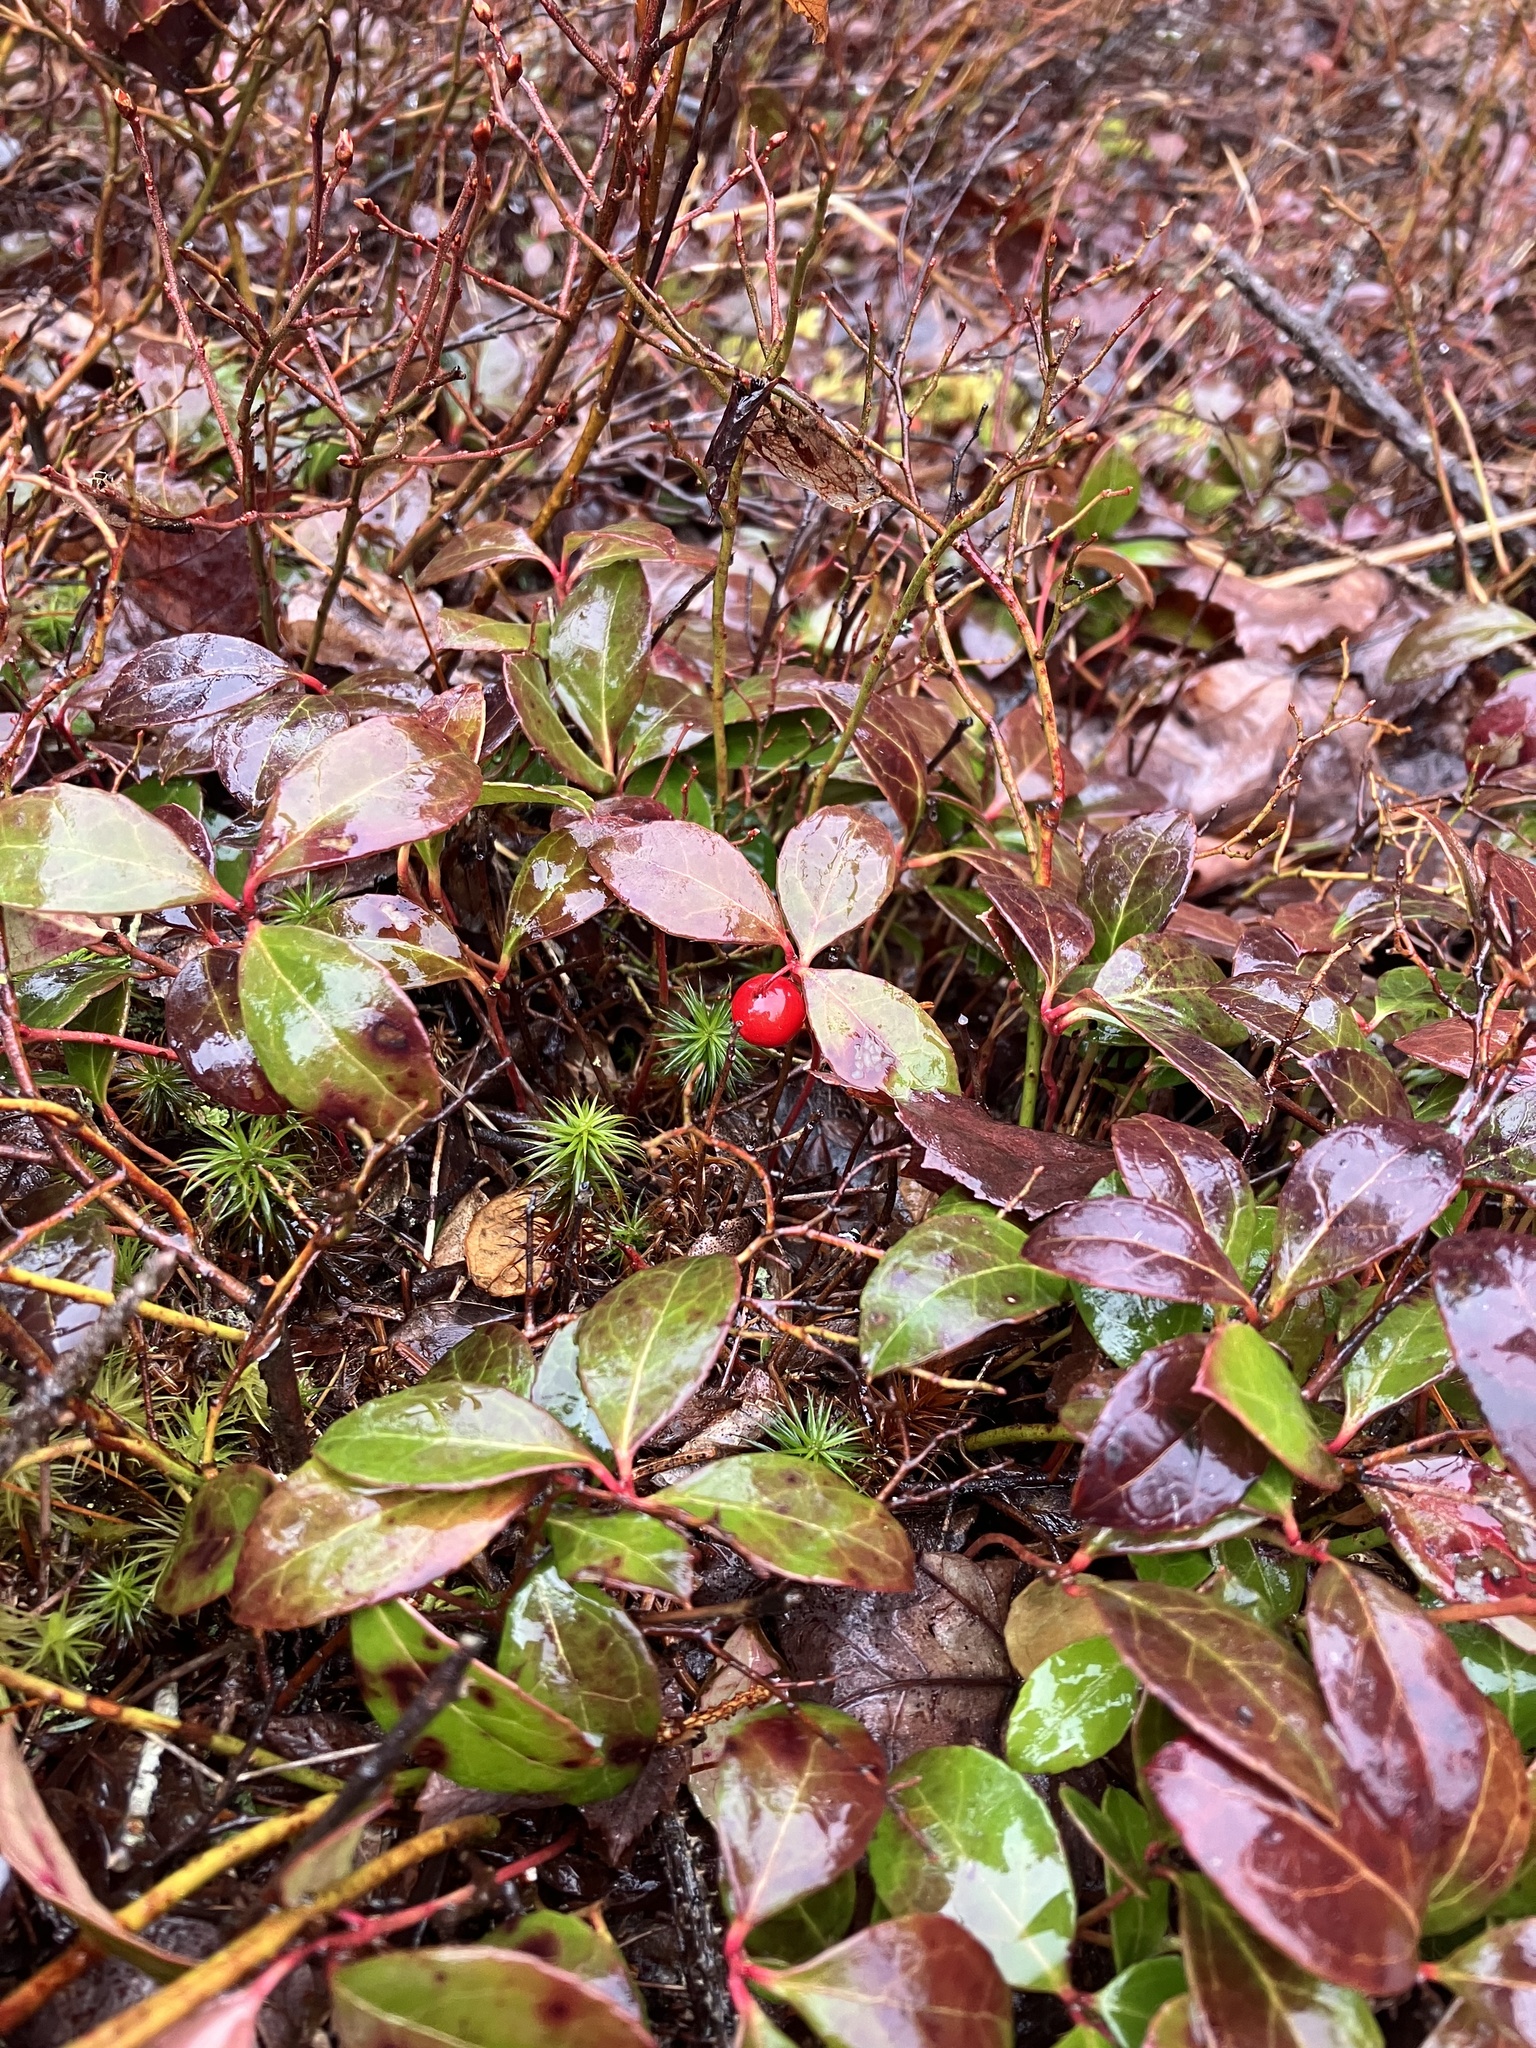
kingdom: Plantae
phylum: Tracheophyta
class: Magnoliopsida
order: Ericales
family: Ericaceae
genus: Gaultheria
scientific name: Gaultheria procumbens
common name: Checkerberry
